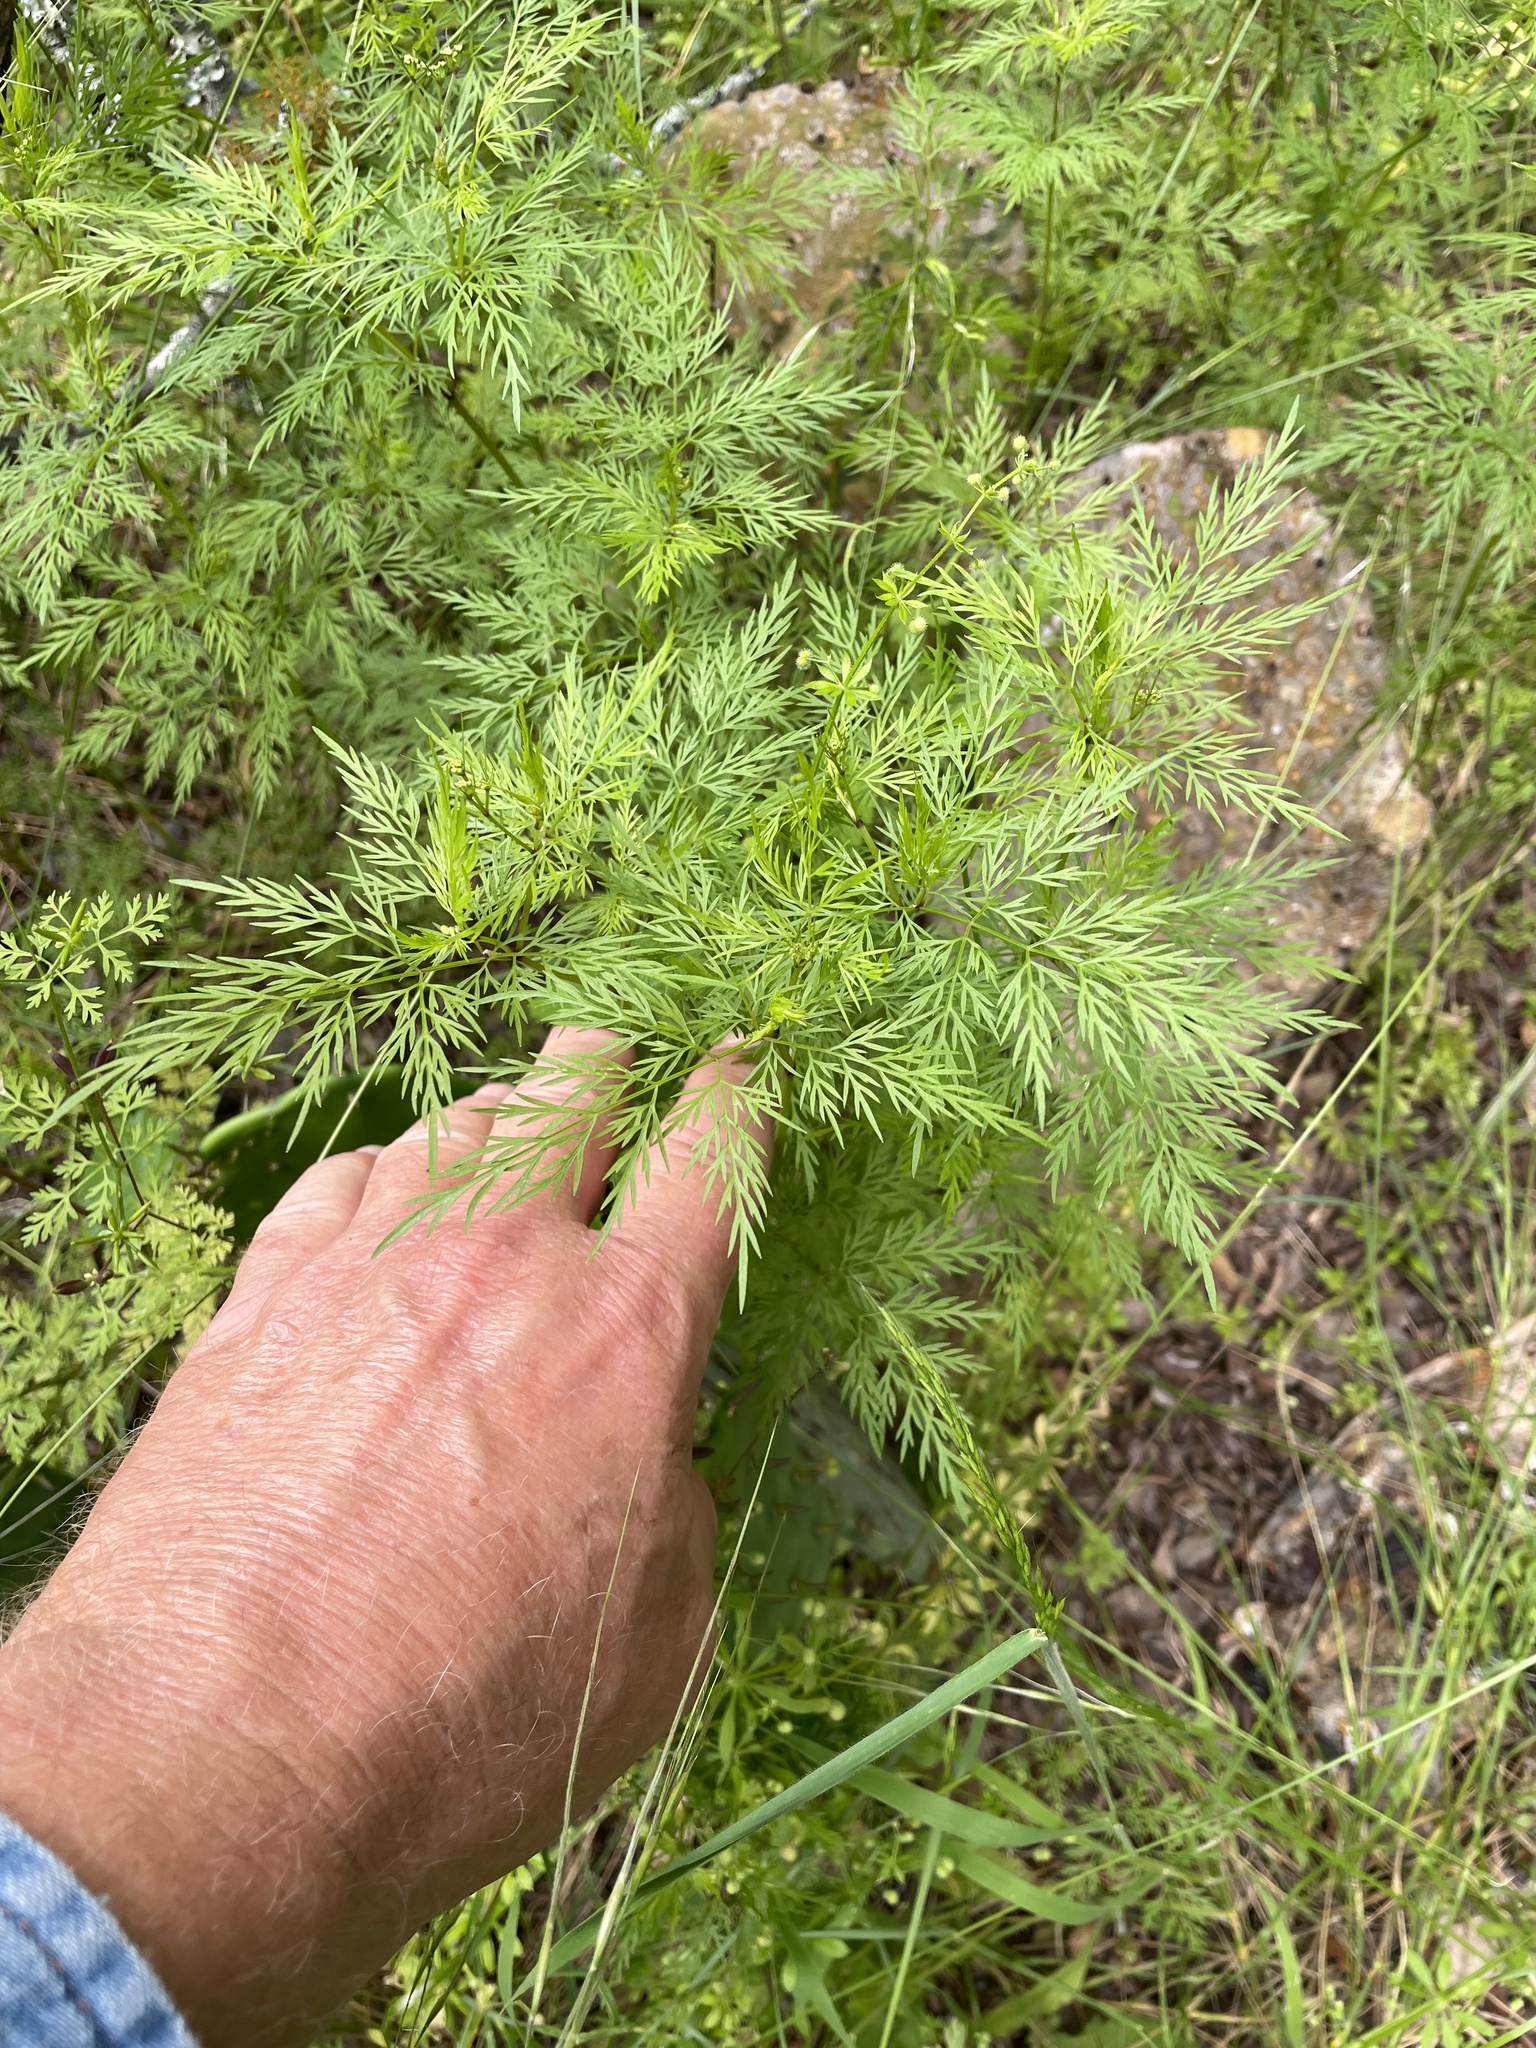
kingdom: Plantae
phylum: Tracheophyta
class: Magnoliopsida
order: Apiales
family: Apiaceae
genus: Trepocarpus
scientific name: Trepocarpus aethusae
